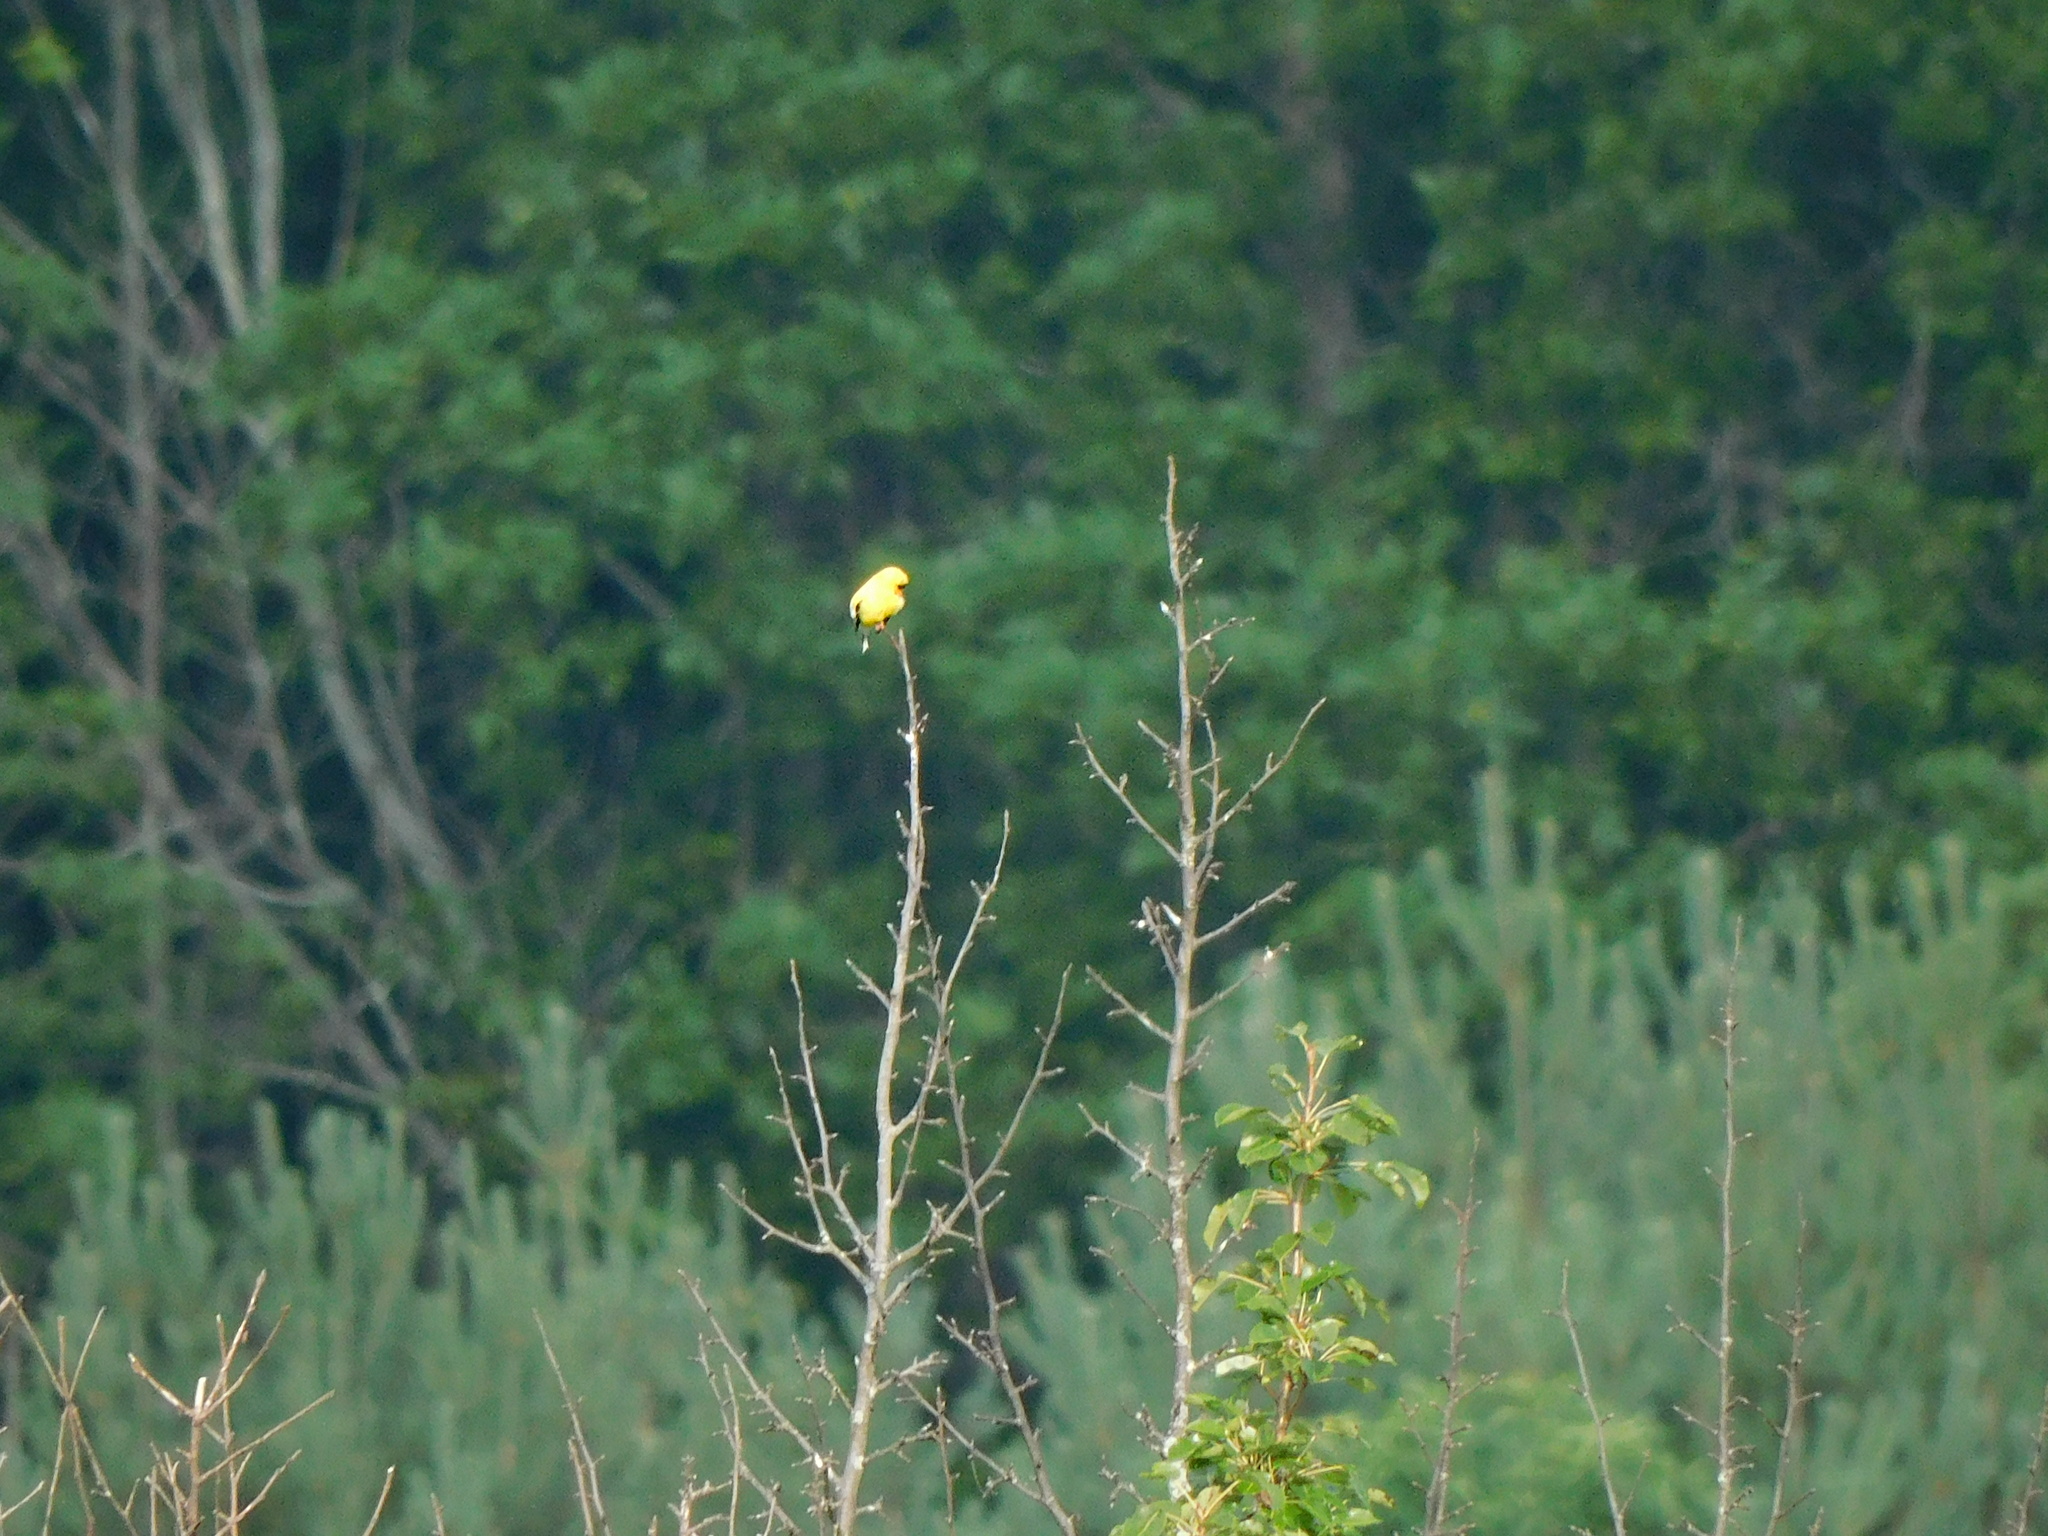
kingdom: Animalia
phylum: Chordata
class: Aves
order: Passeriformes
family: Fringillidae
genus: Spinus
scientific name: Spinus tristis
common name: American goldfinch
